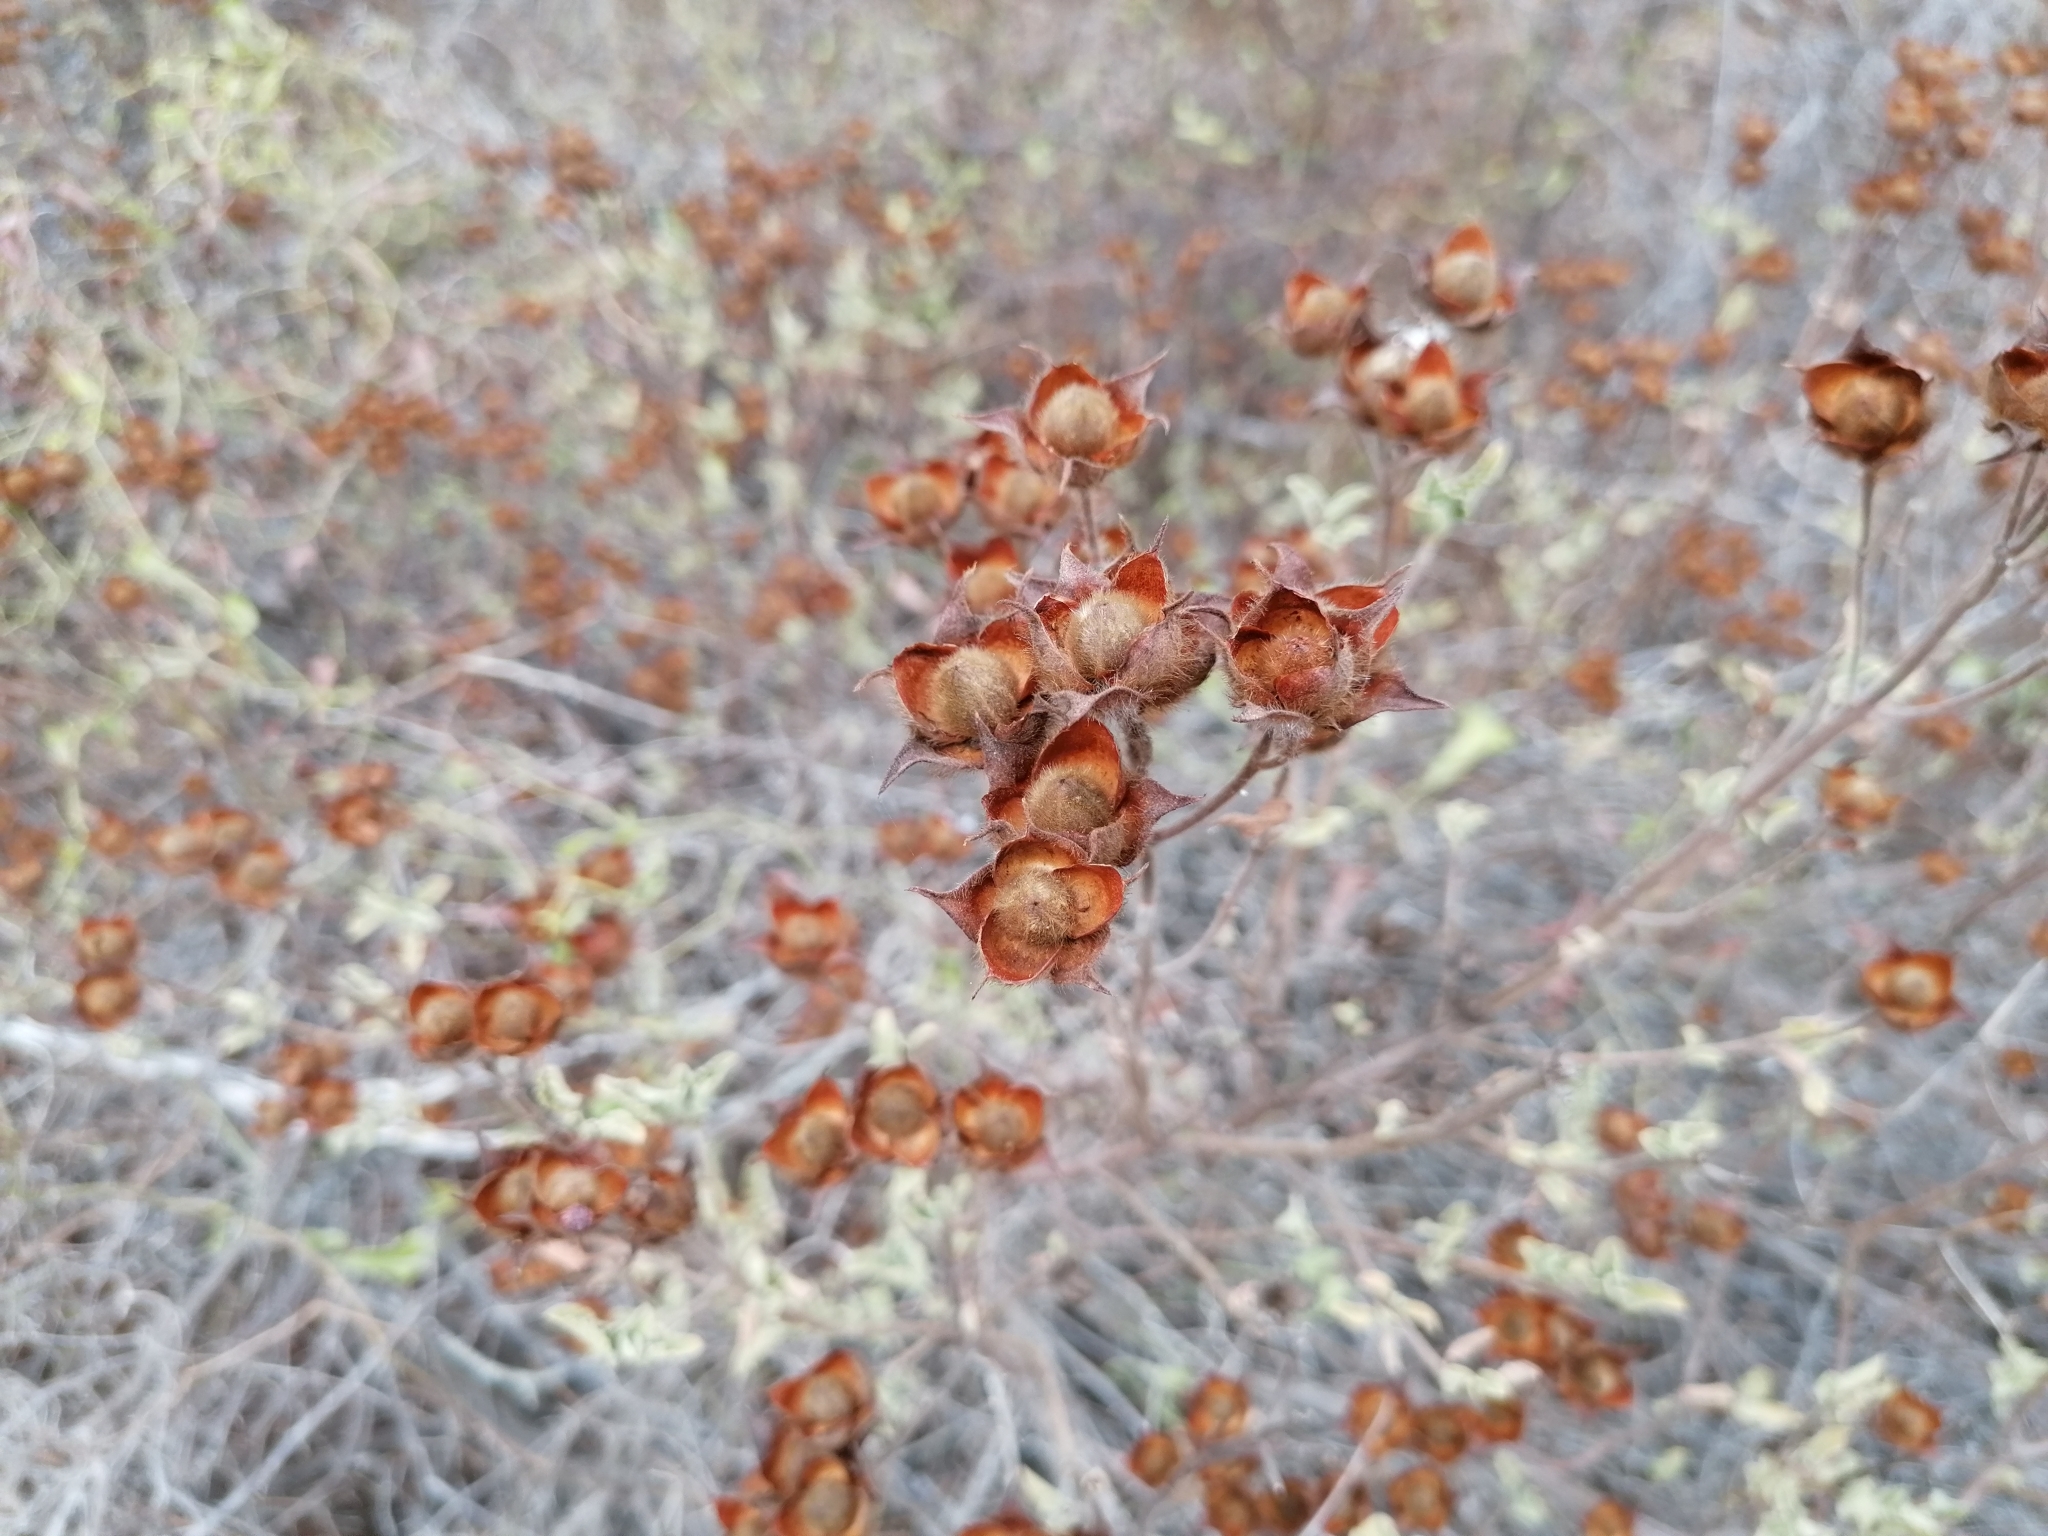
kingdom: Plantae
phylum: Tracheophyta
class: Magnoliopsida
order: Malvales
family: Cistaceae
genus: Cistus
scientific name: Cistus creticus
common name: Cretan rockrose
